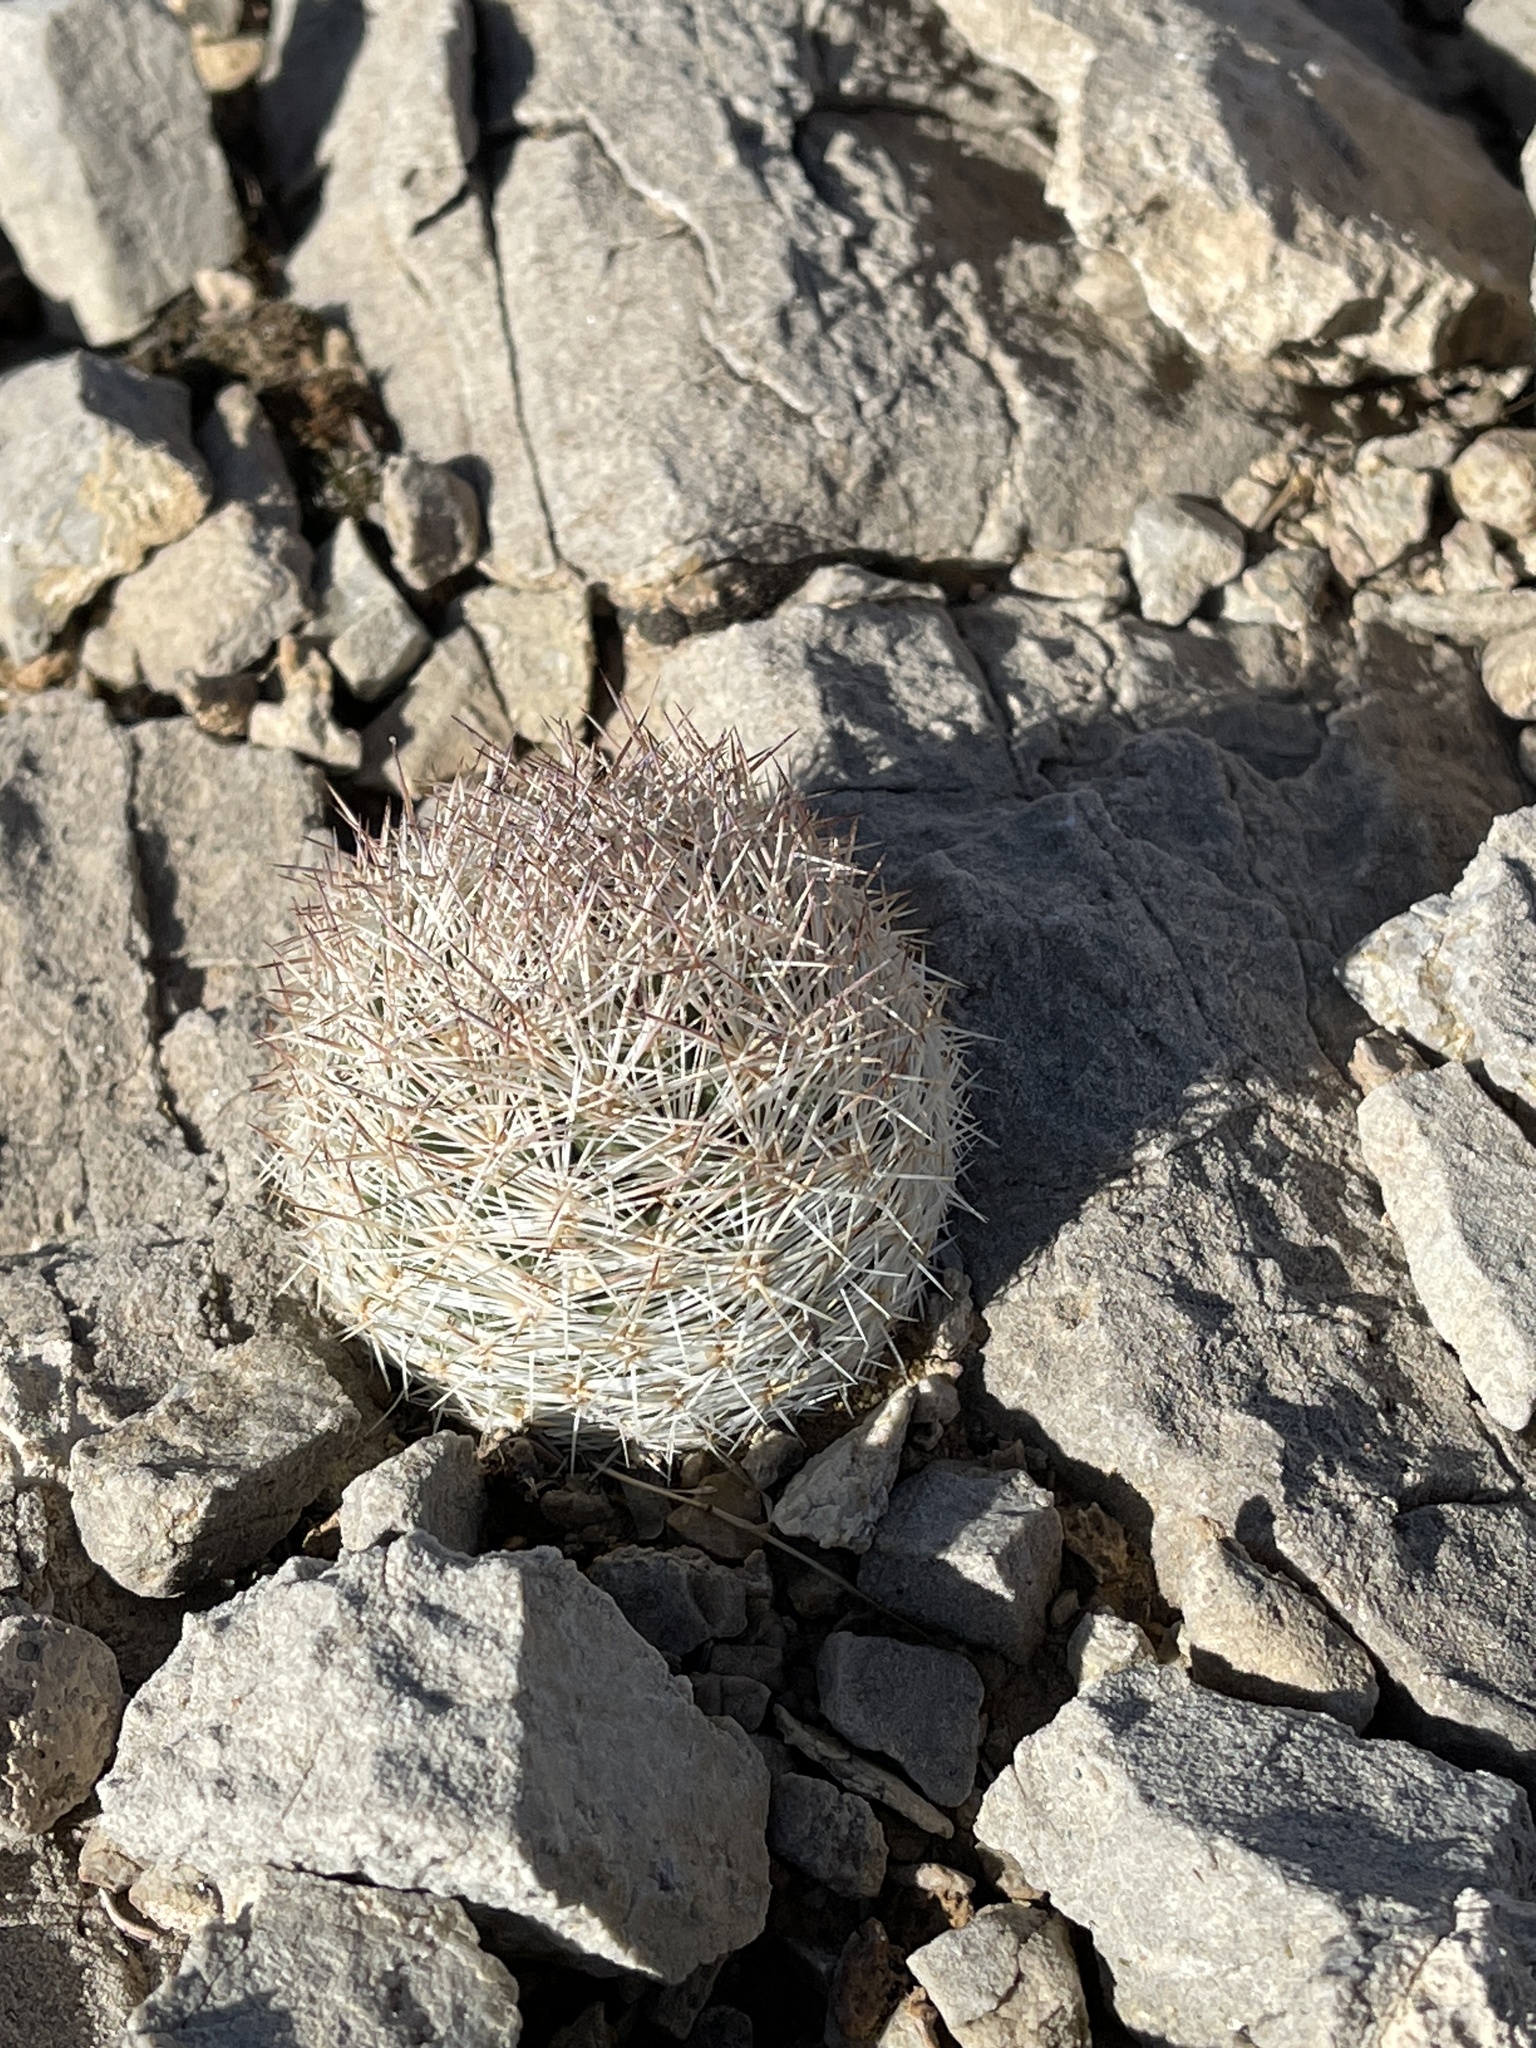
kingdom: Plantae
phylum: Tracheophyta
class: Magnoliopsida
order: Caryophyllales
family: Cactaceae
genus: Pelecyphora
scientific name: Pelecyphora dasyacantha
